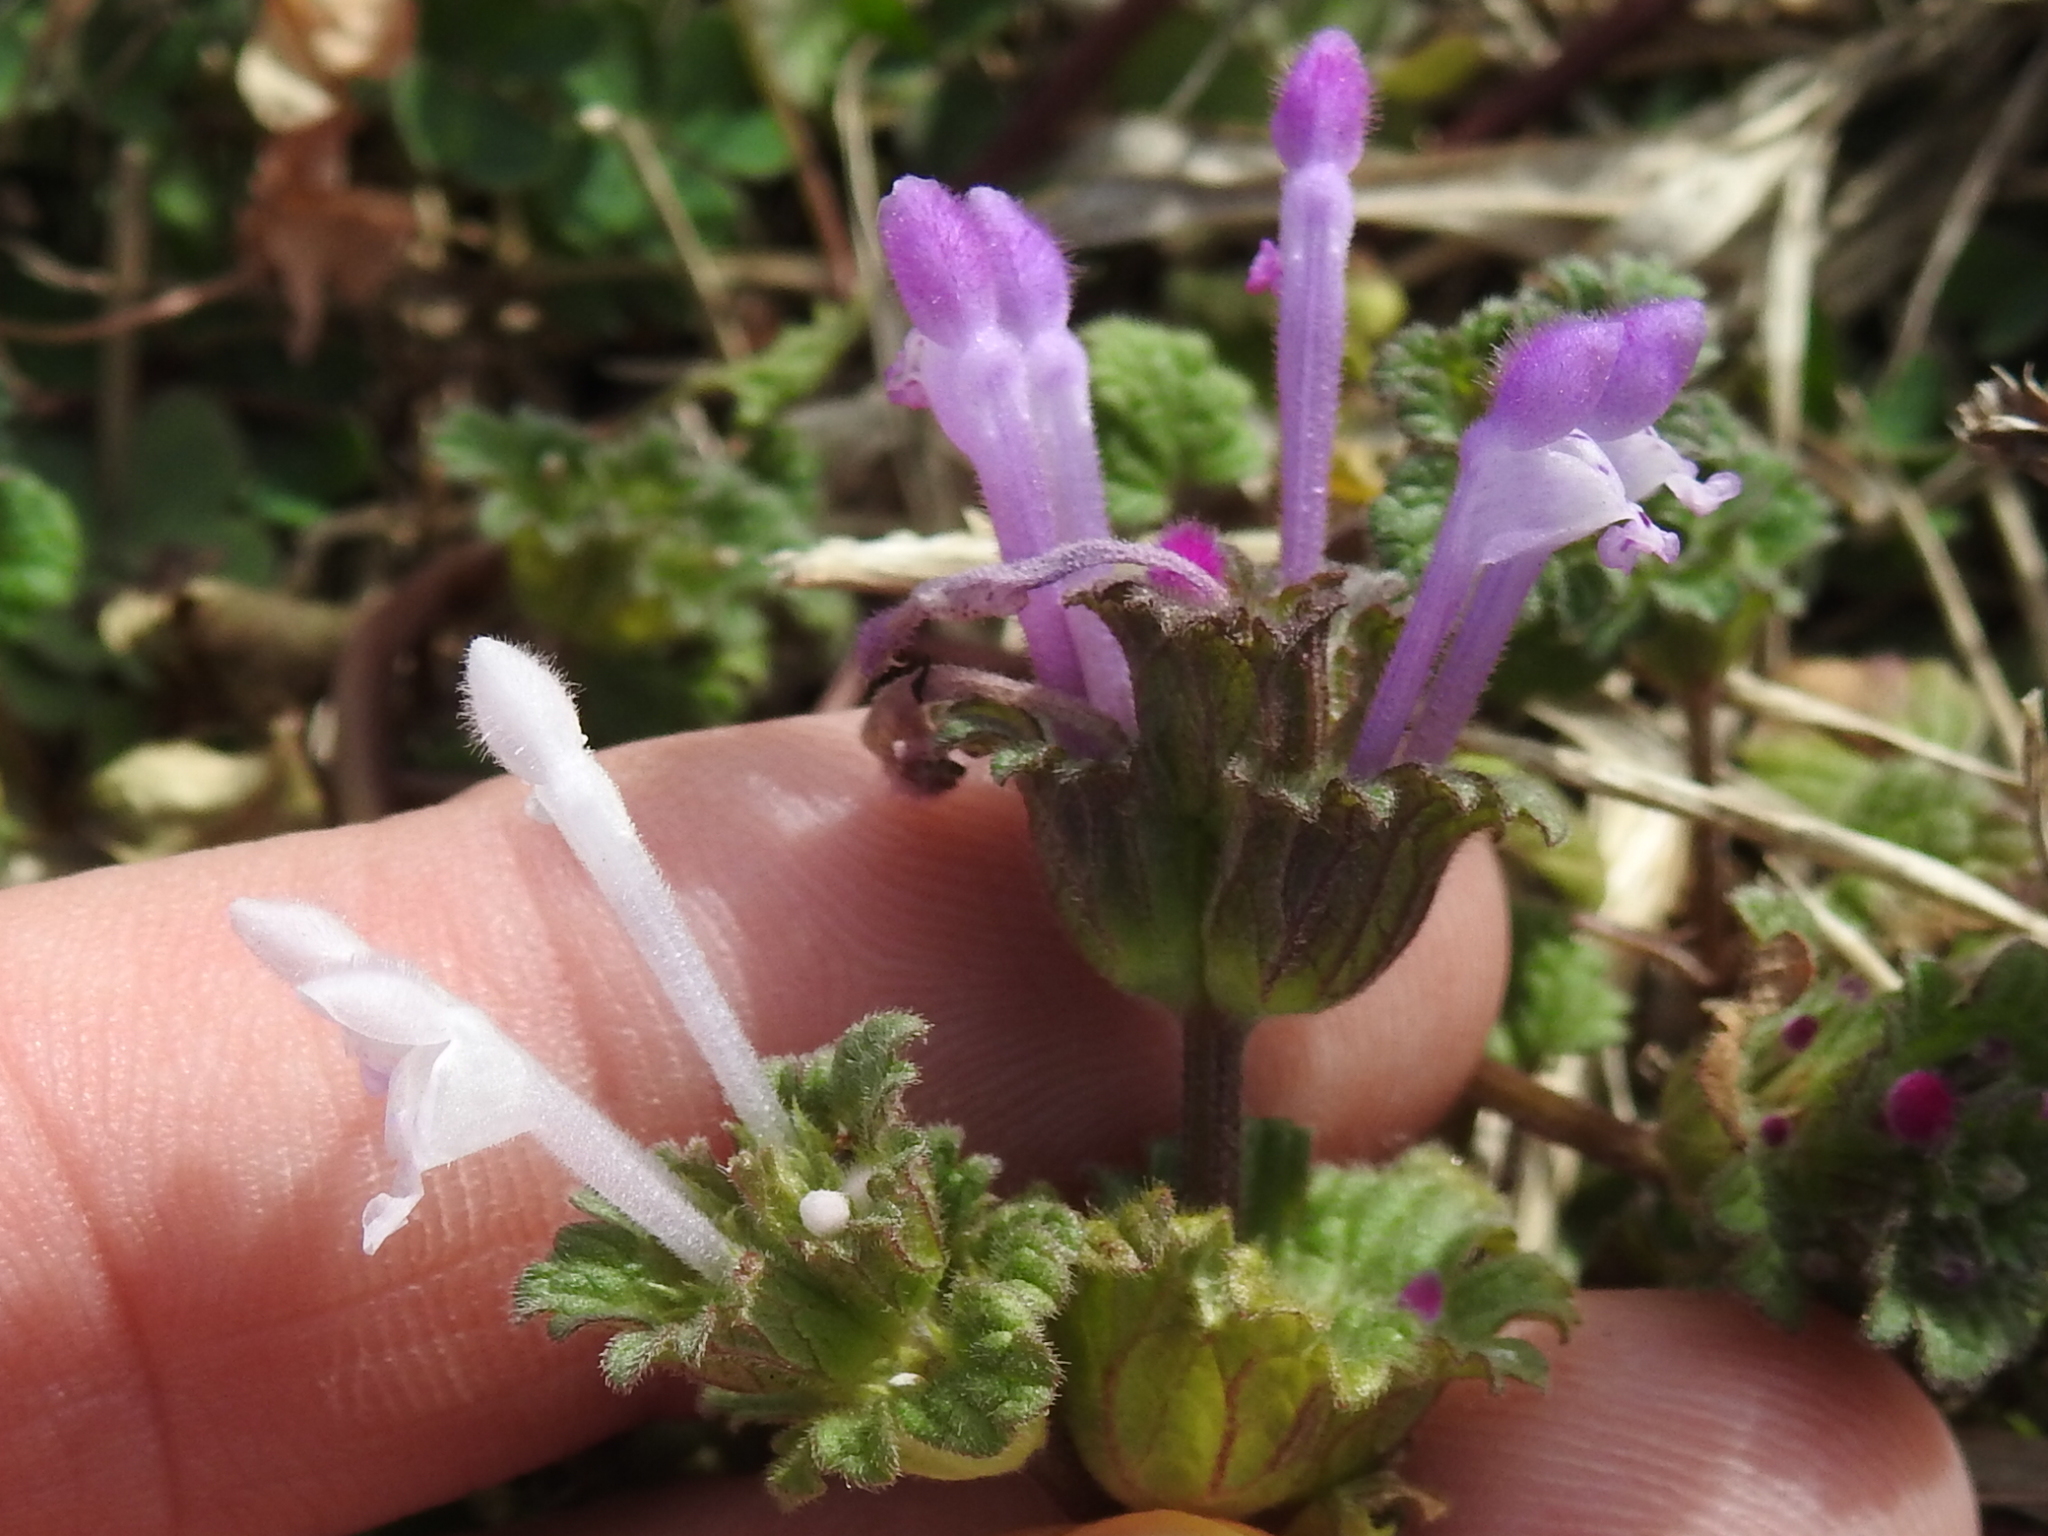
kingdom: Plantae
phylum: Tracheophyta
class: Magnoliopsida
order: Lamiales
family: Lamiaceae
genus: Lamium
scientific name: Lamium amplexicaule
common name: Henbit dead-nettle
